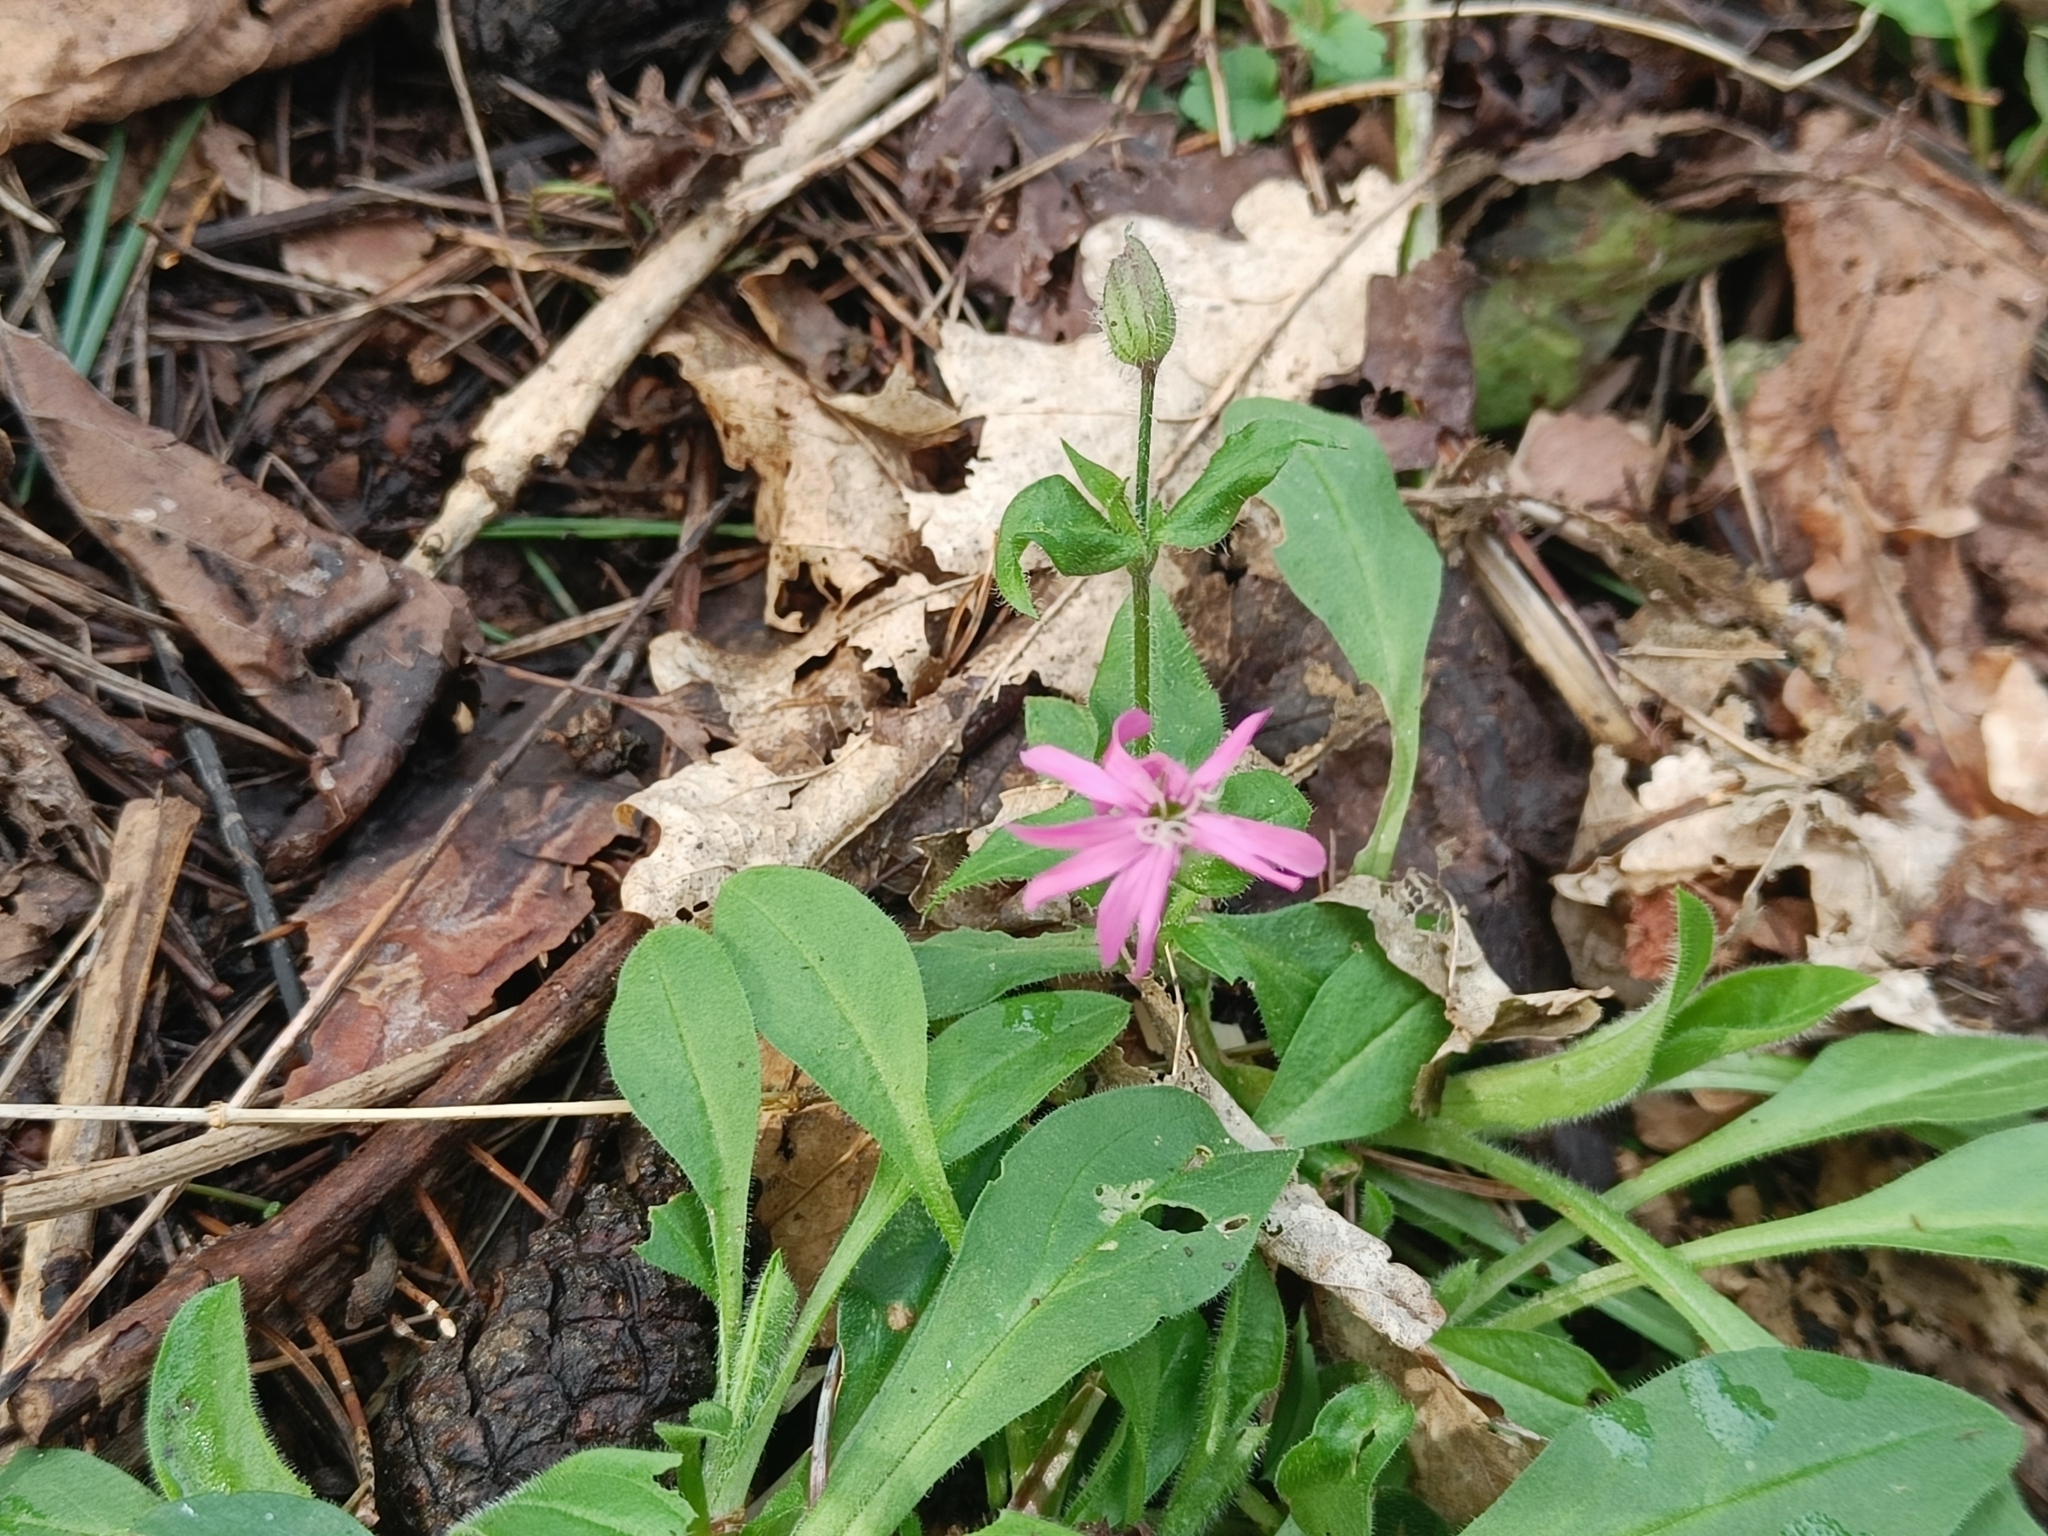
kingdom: Plantae
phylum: Tracheophyta
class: Magnoliopsida
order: Caryophyllales
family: Caryophyllaceae
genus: Silene
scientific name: Silene dioica
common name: Red campion
